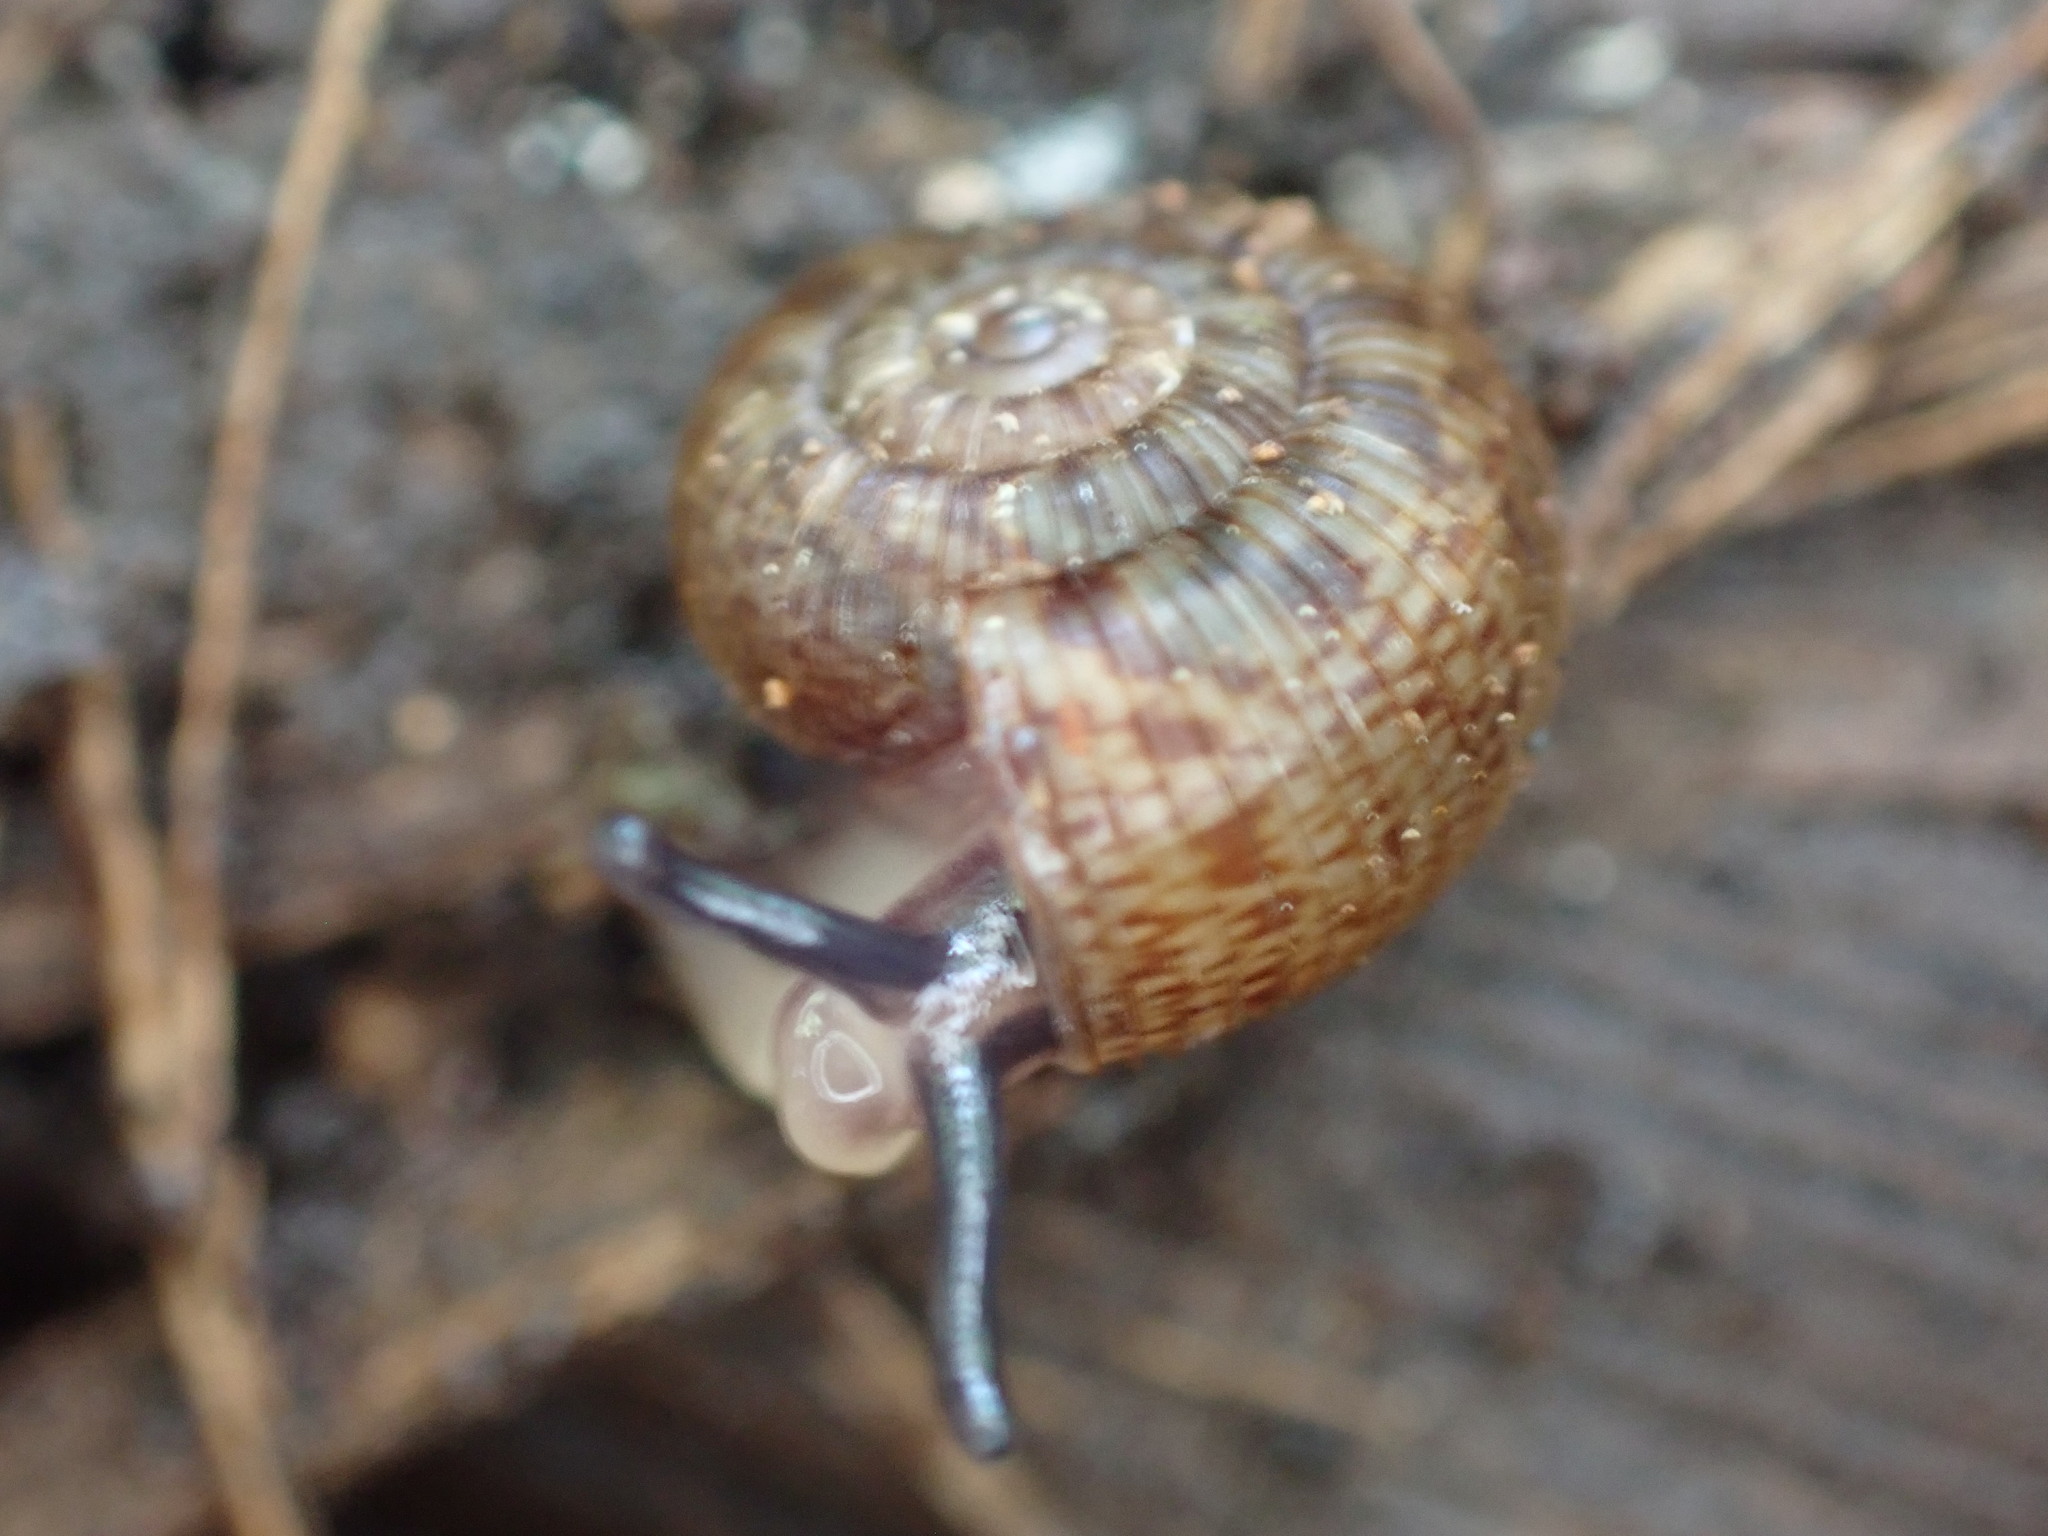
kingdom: Animalia
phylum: Mollusca
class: Gastropoda
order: Stylommatophora
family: Charopidae
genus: Allodiscus
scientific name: Allodiscus dimorphus
